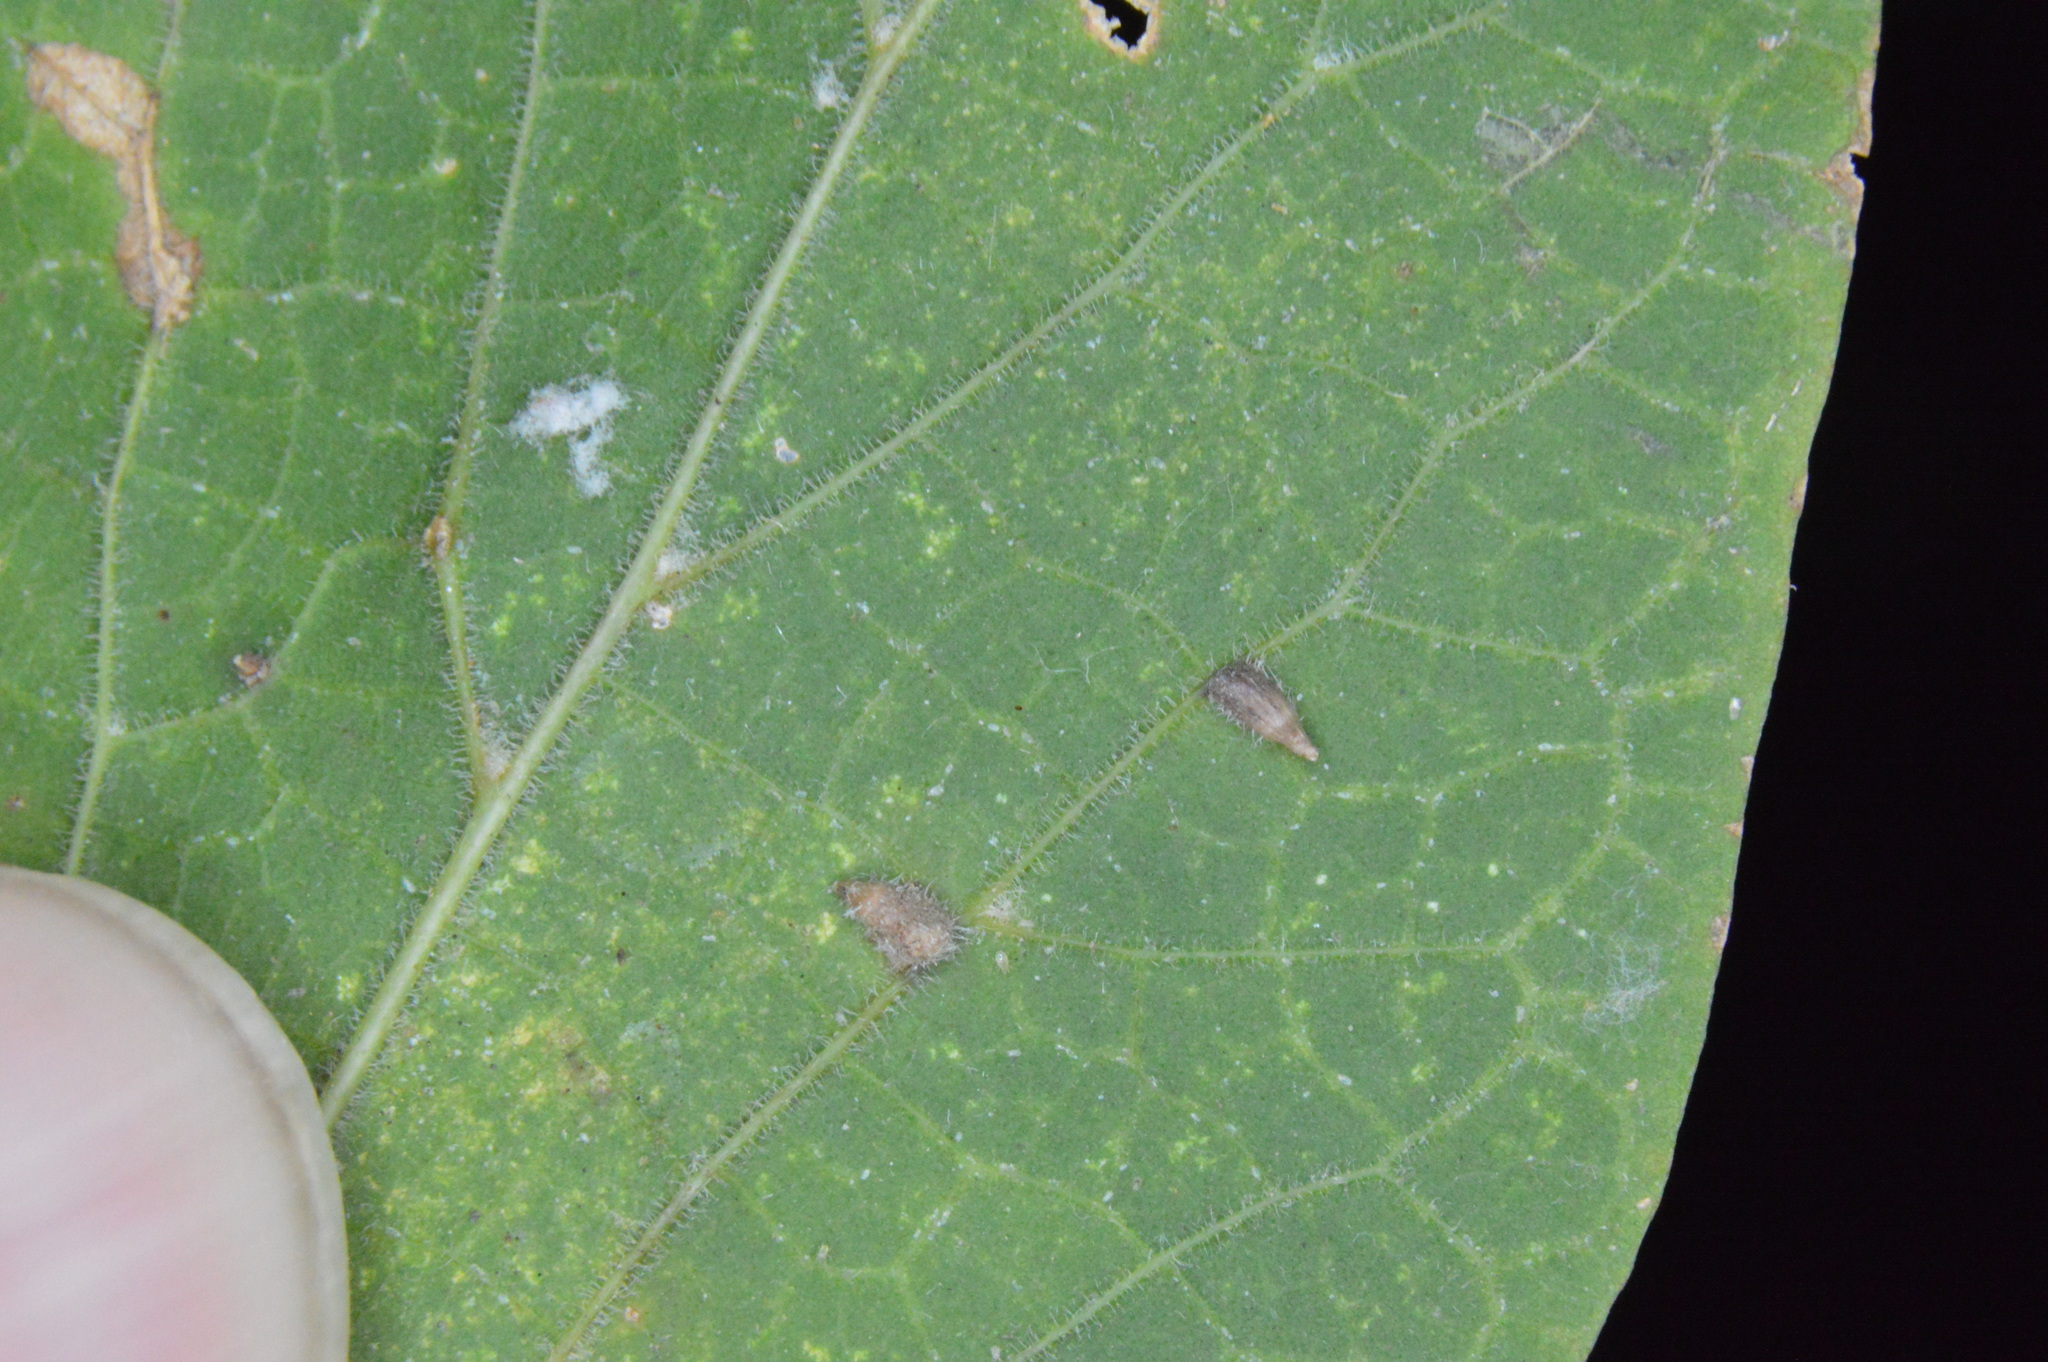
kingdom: Animalia
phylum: Arthropoda
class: Insecta
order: Diptera
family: Cecidomyiidae
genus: Celticecis
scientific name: Celticecis supina
